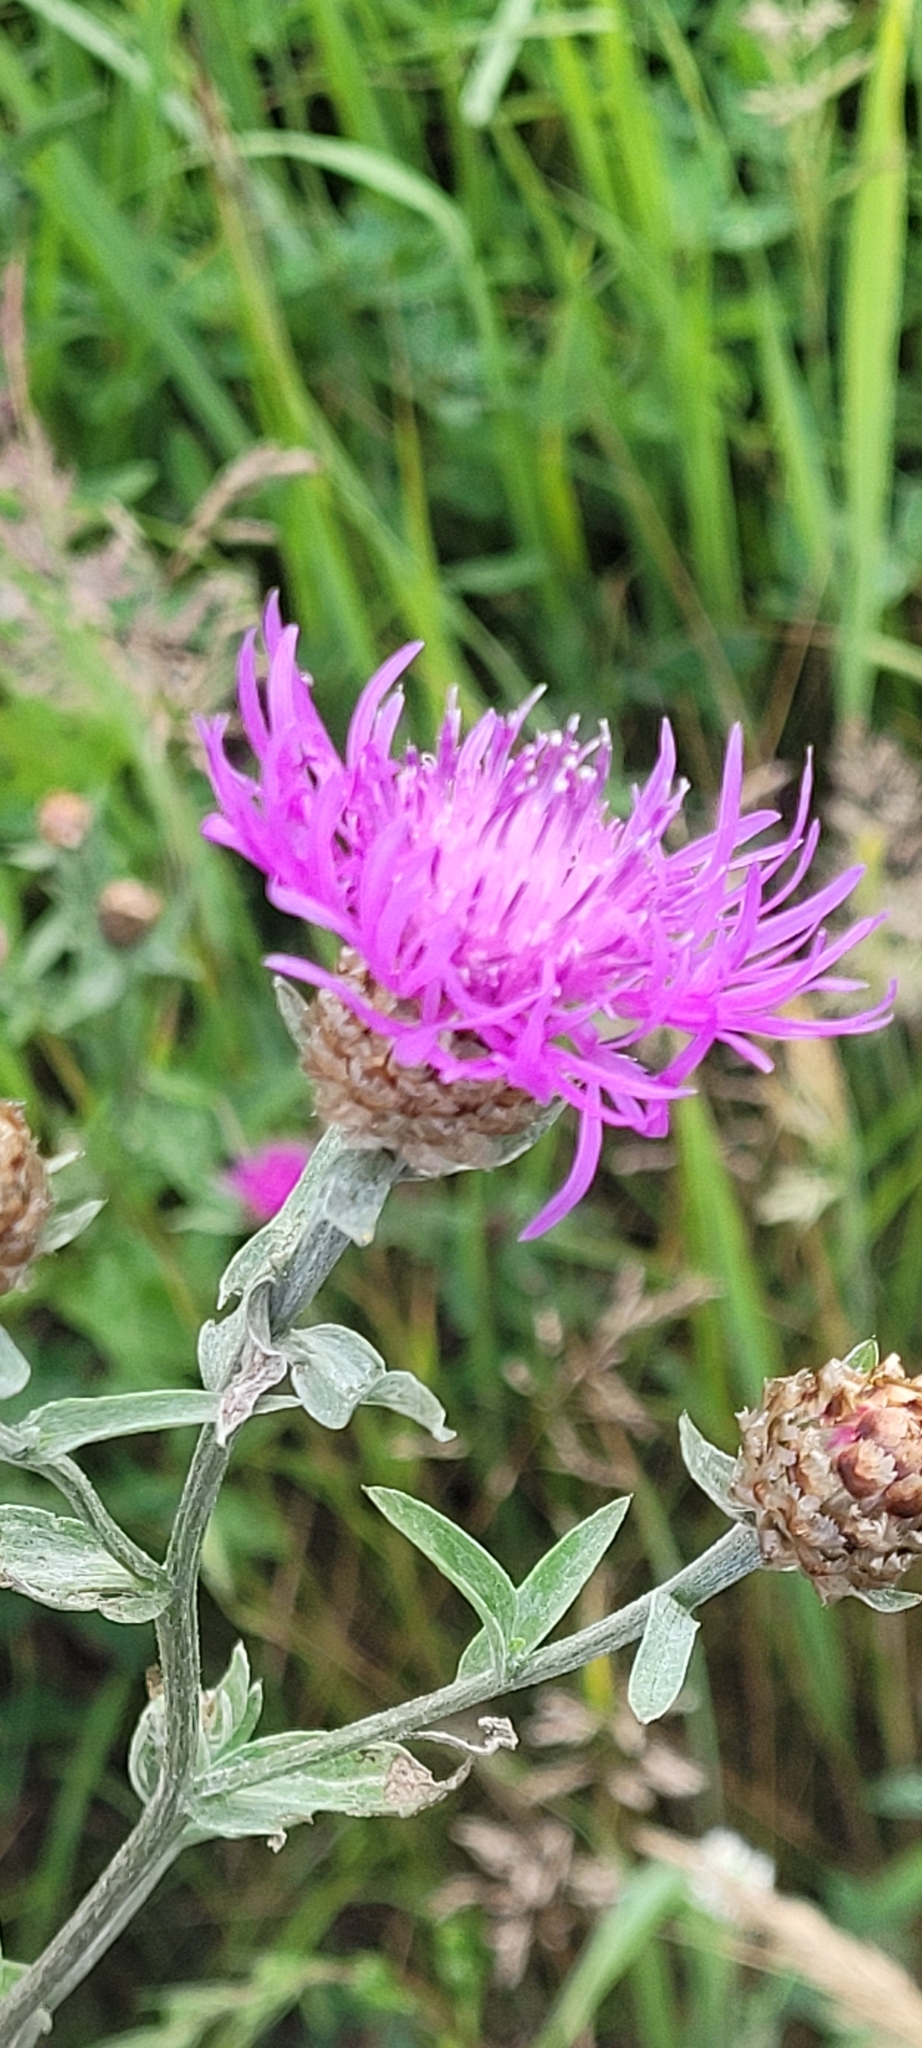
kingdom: Plantae
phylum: Tracheophyta
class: Magnoliopsida
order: Asterales
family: Asteraceae
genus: Centaurea
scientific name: Centaurea jacea
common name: Brown knapweed
